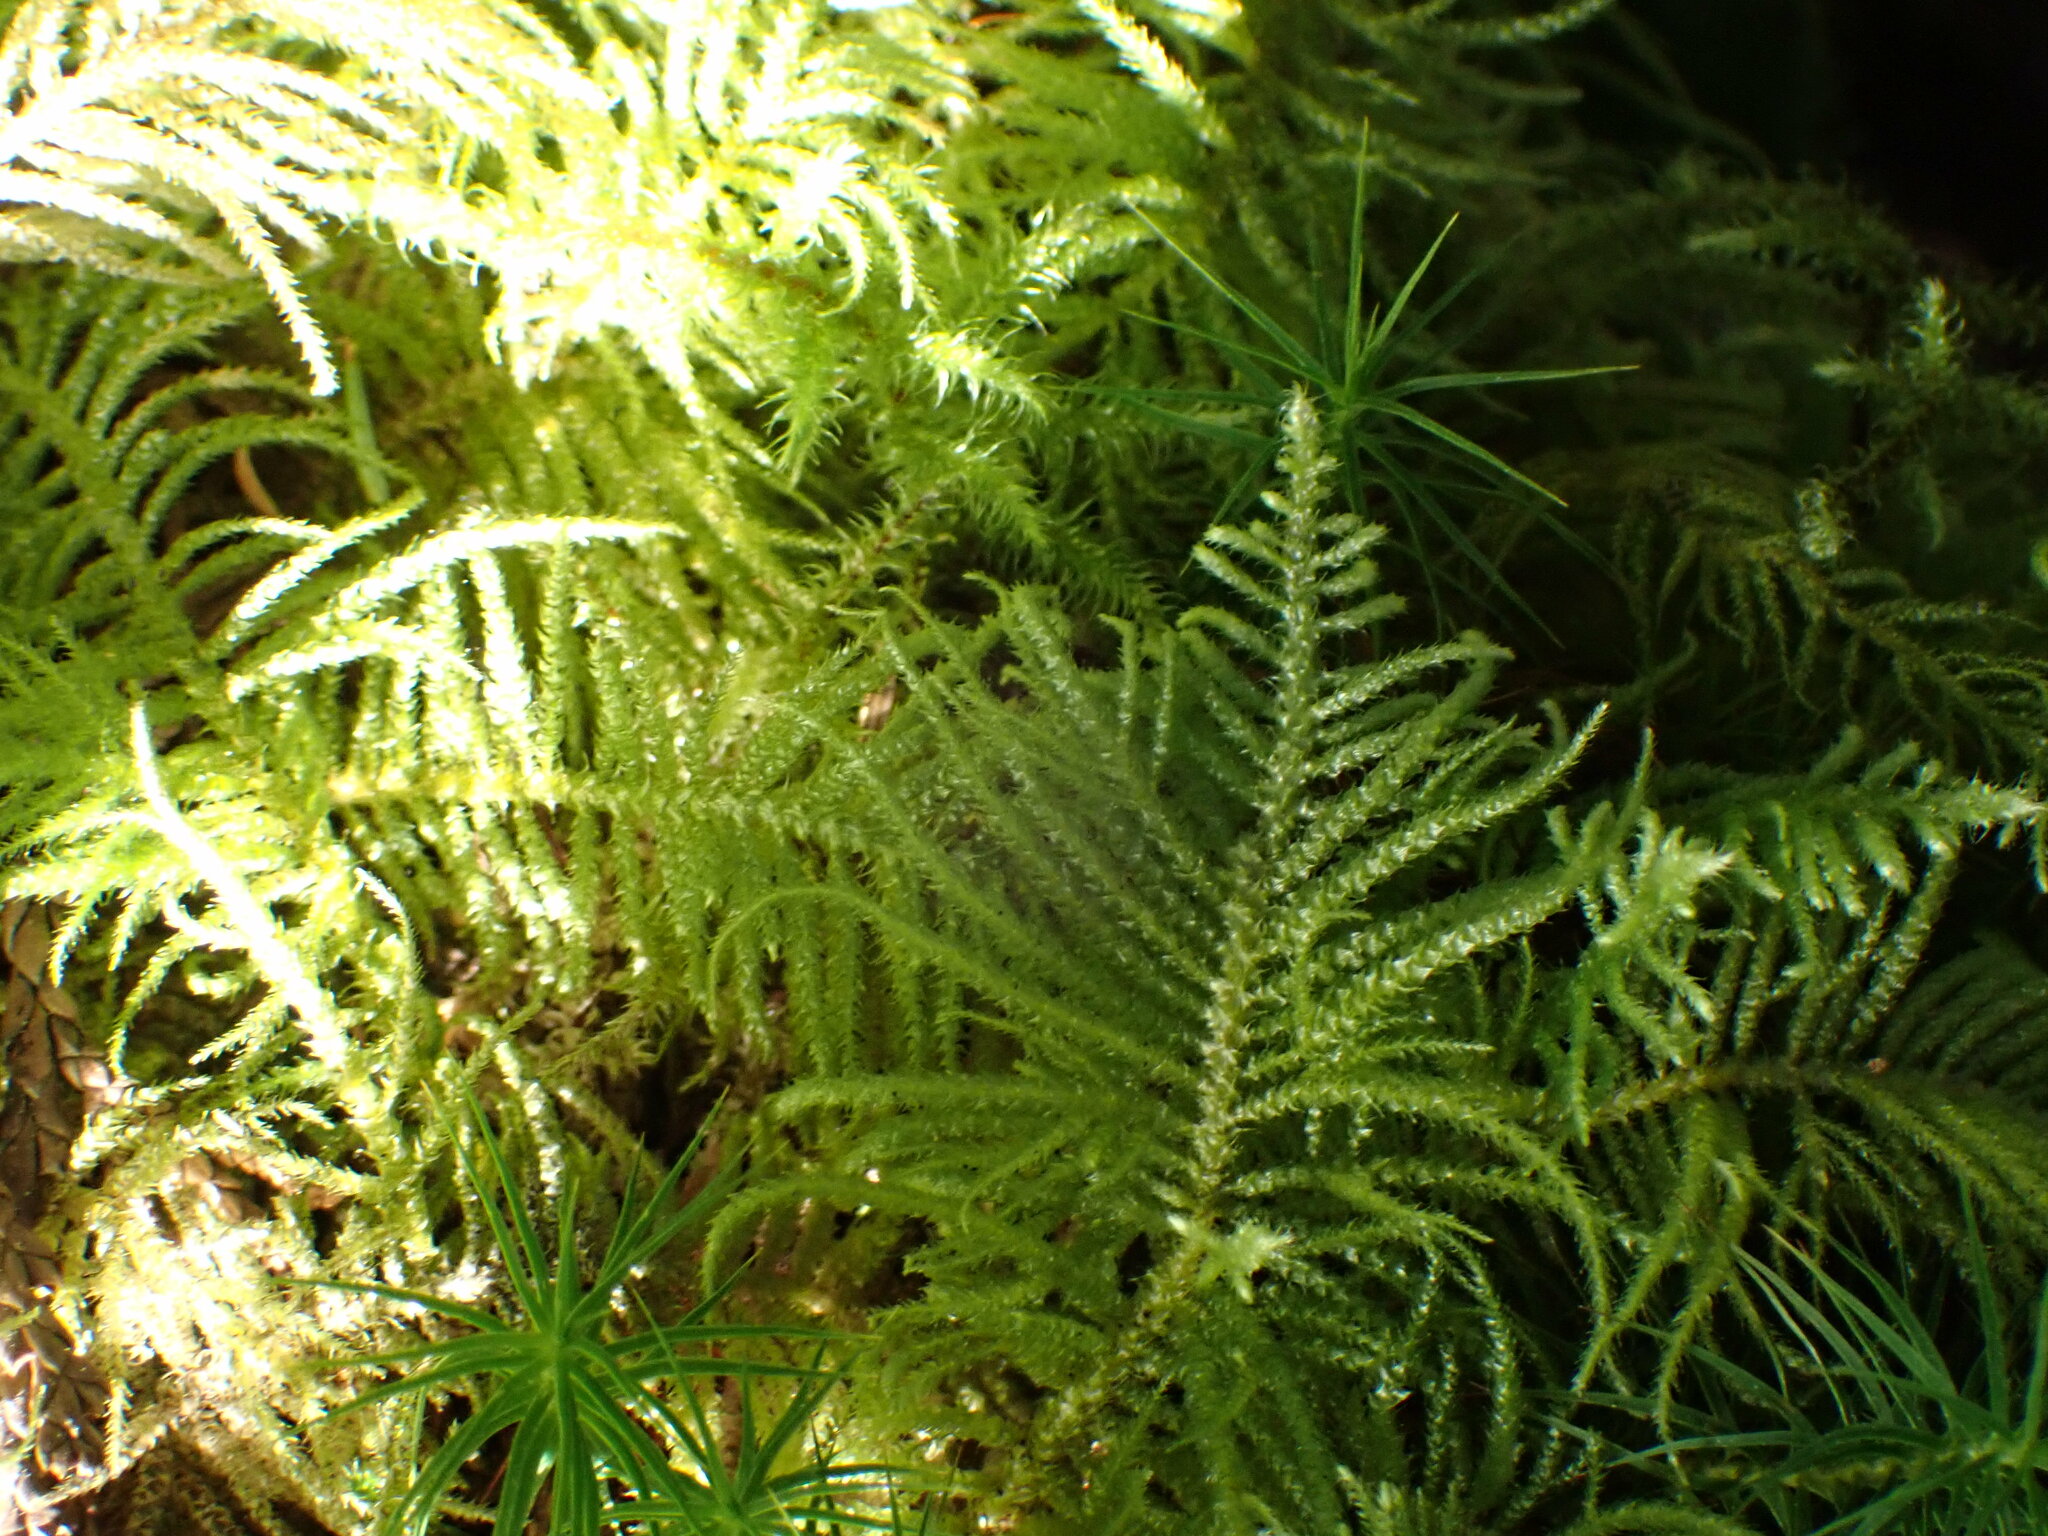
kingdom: Plantae
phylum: Bryophyta
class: Bryopsida
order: Hypnales
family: Brachytheciaceae
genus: Kindbergia
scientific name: Kindbergia oregana
